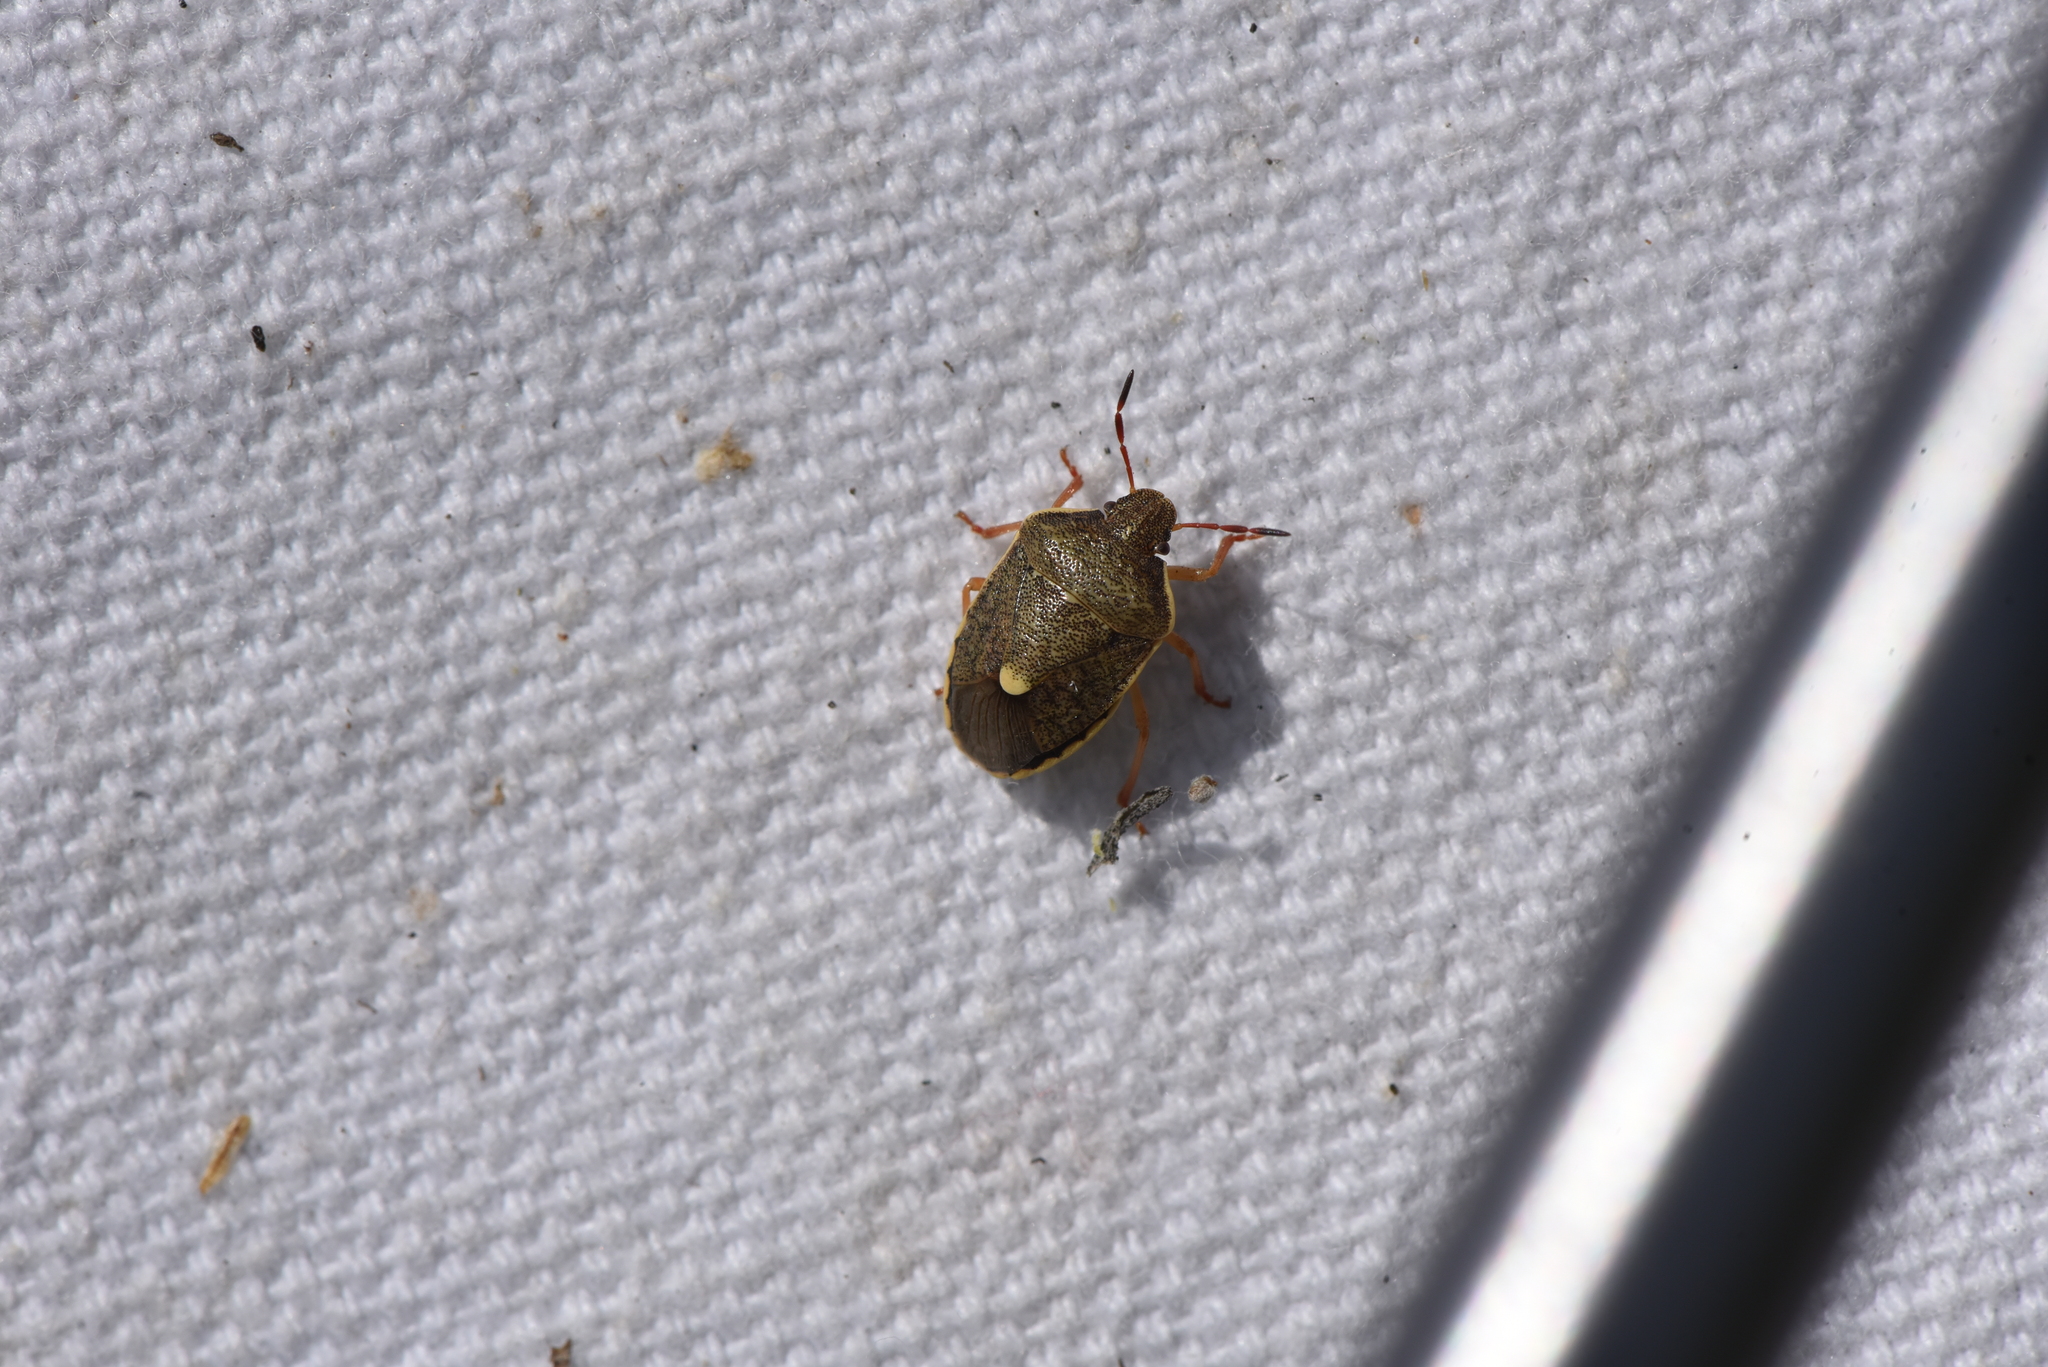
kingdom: Animalia
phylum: Arthropoda
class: Insecta
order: Hemiptera
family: Pentatomidae
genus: Holcostethus
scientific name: Holcostethus limbolarius
